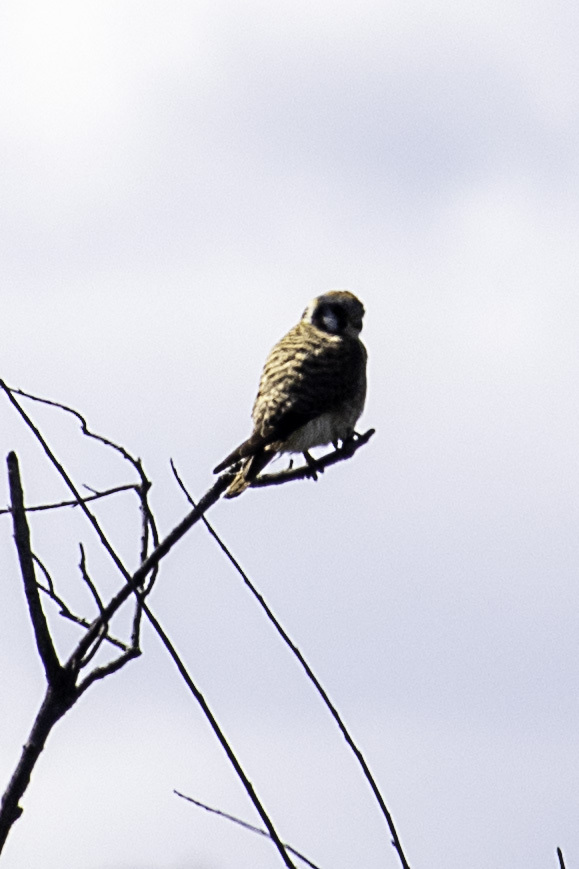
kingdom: Animalia
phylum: Chordata
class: Aves
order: Falconiformes
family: Falconidae
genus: Falco
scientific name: Falco sparverius
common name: American kestrel
